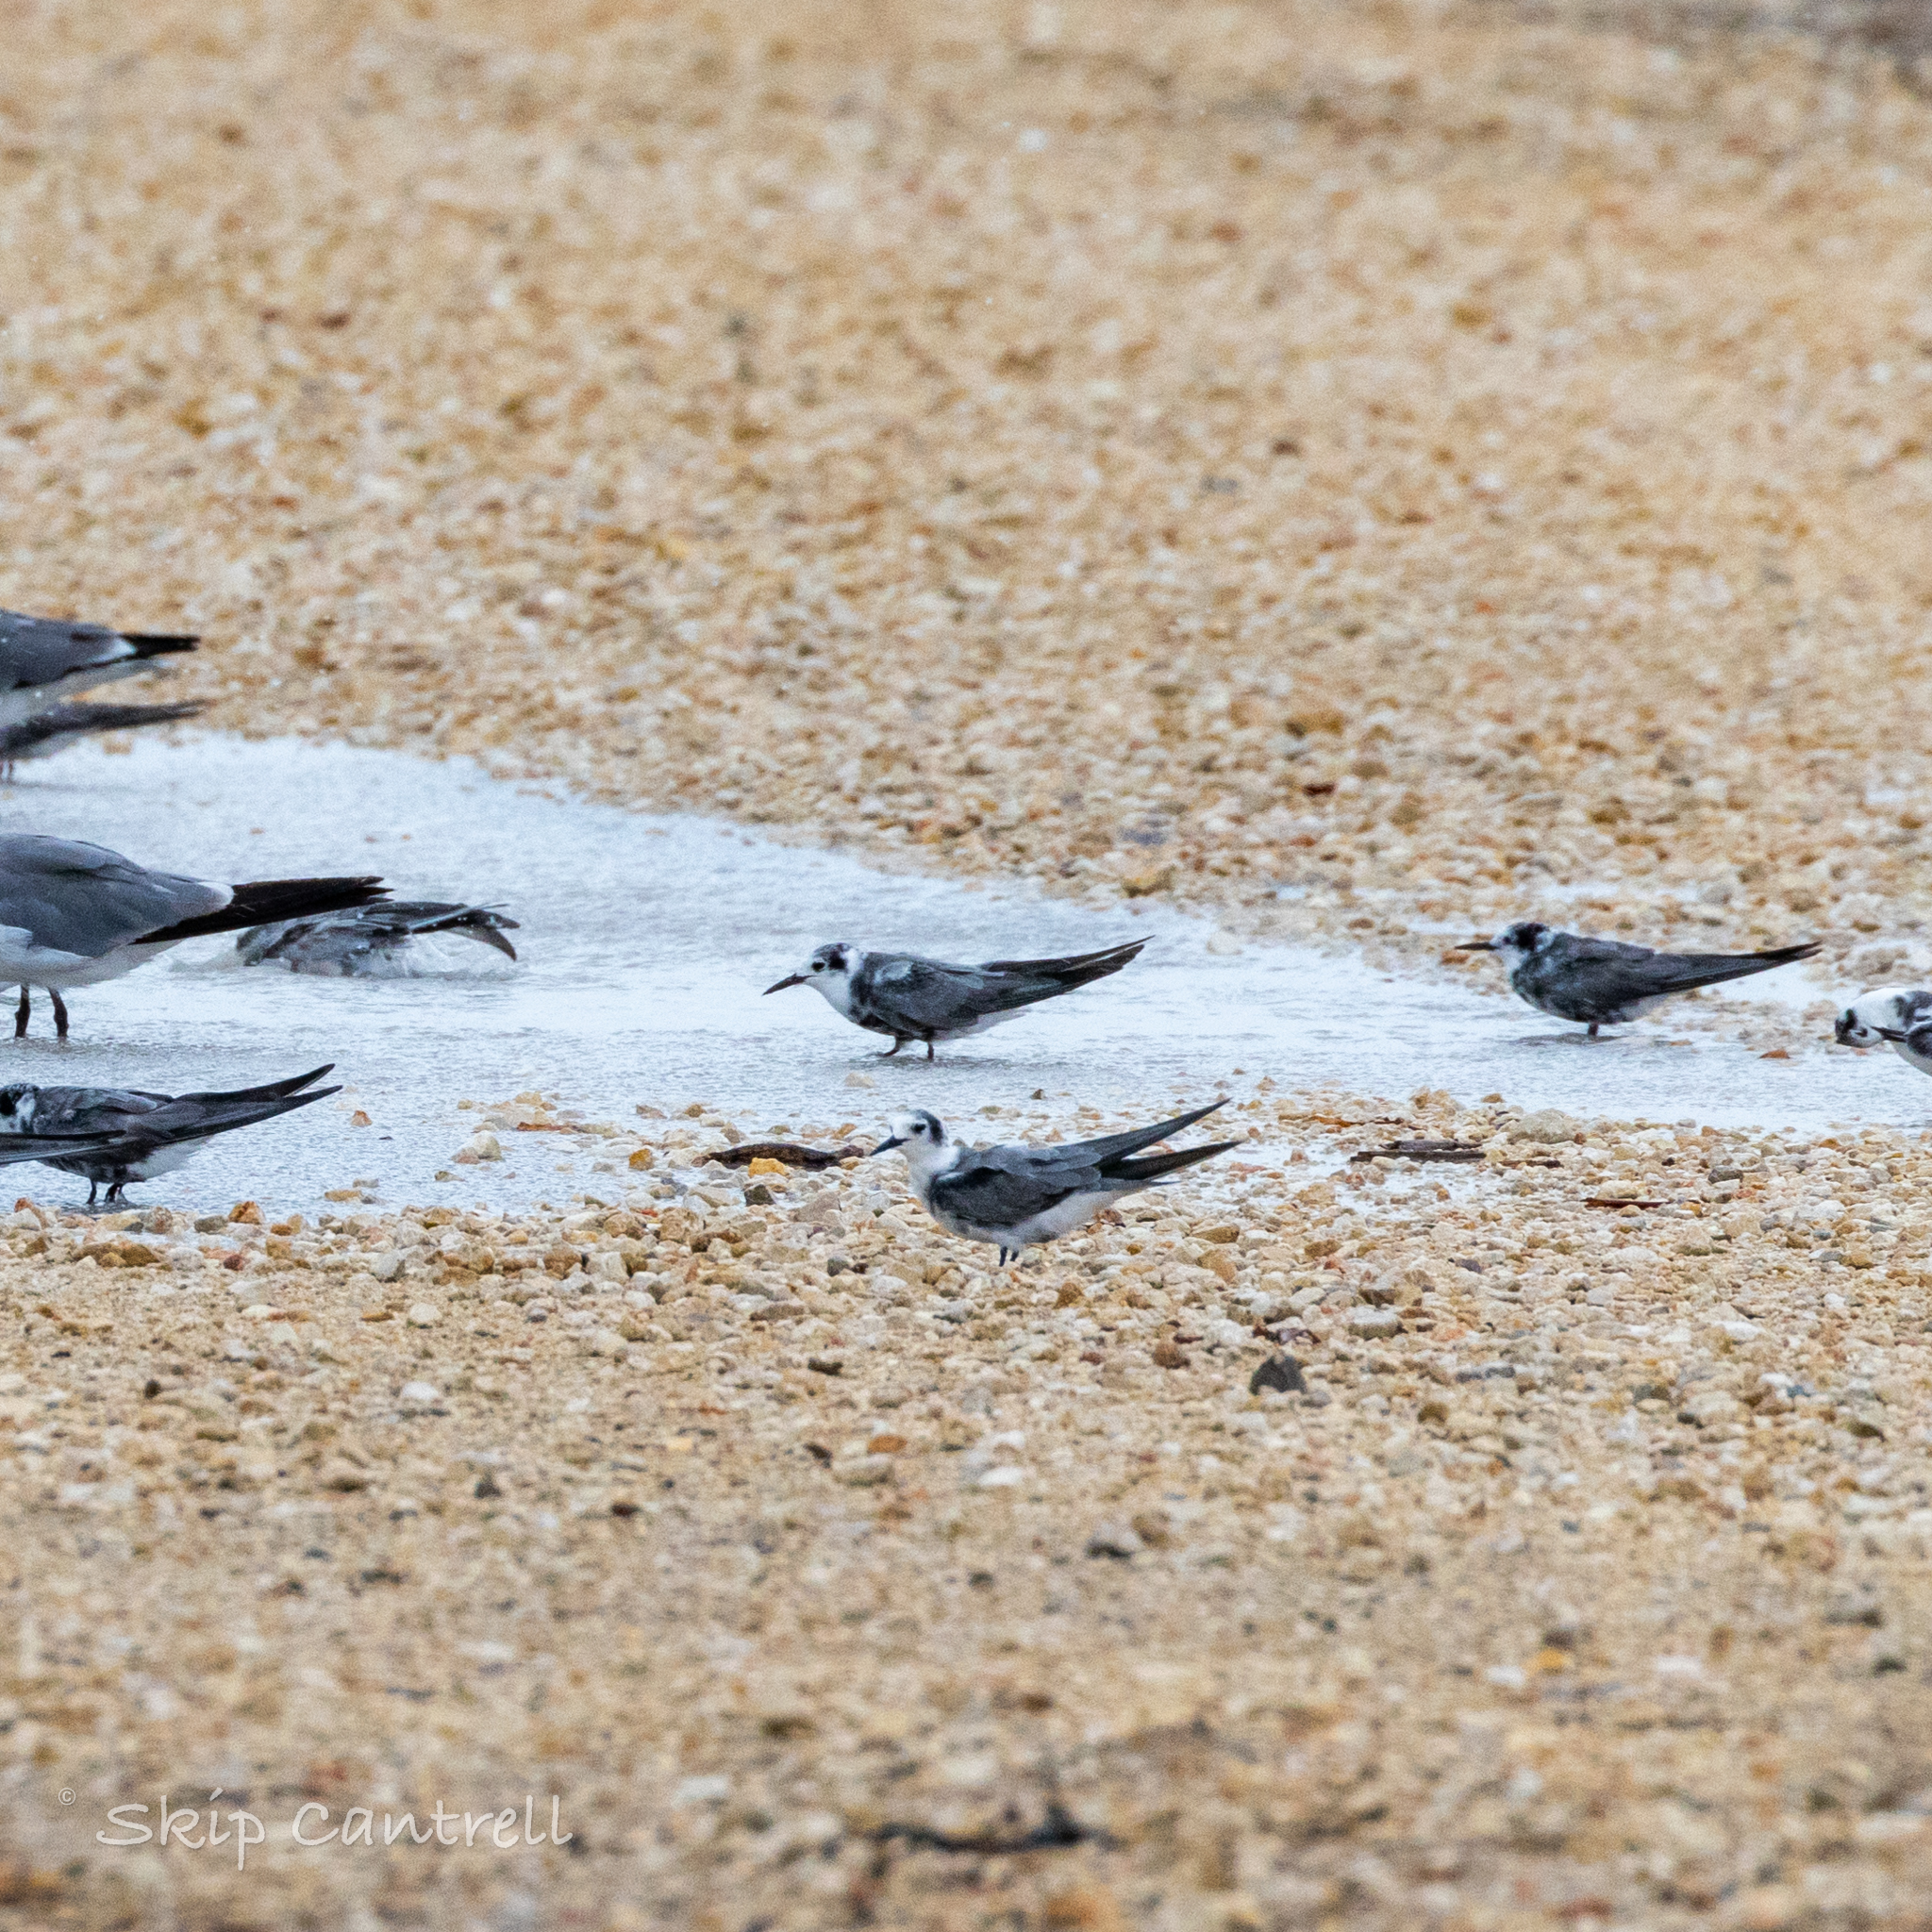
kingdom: Animalia
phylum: Chordata
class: Aves
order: Charadriiformes
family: Laridae
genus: Chlidonias
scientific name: Chlidonias niger
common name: Black tern
